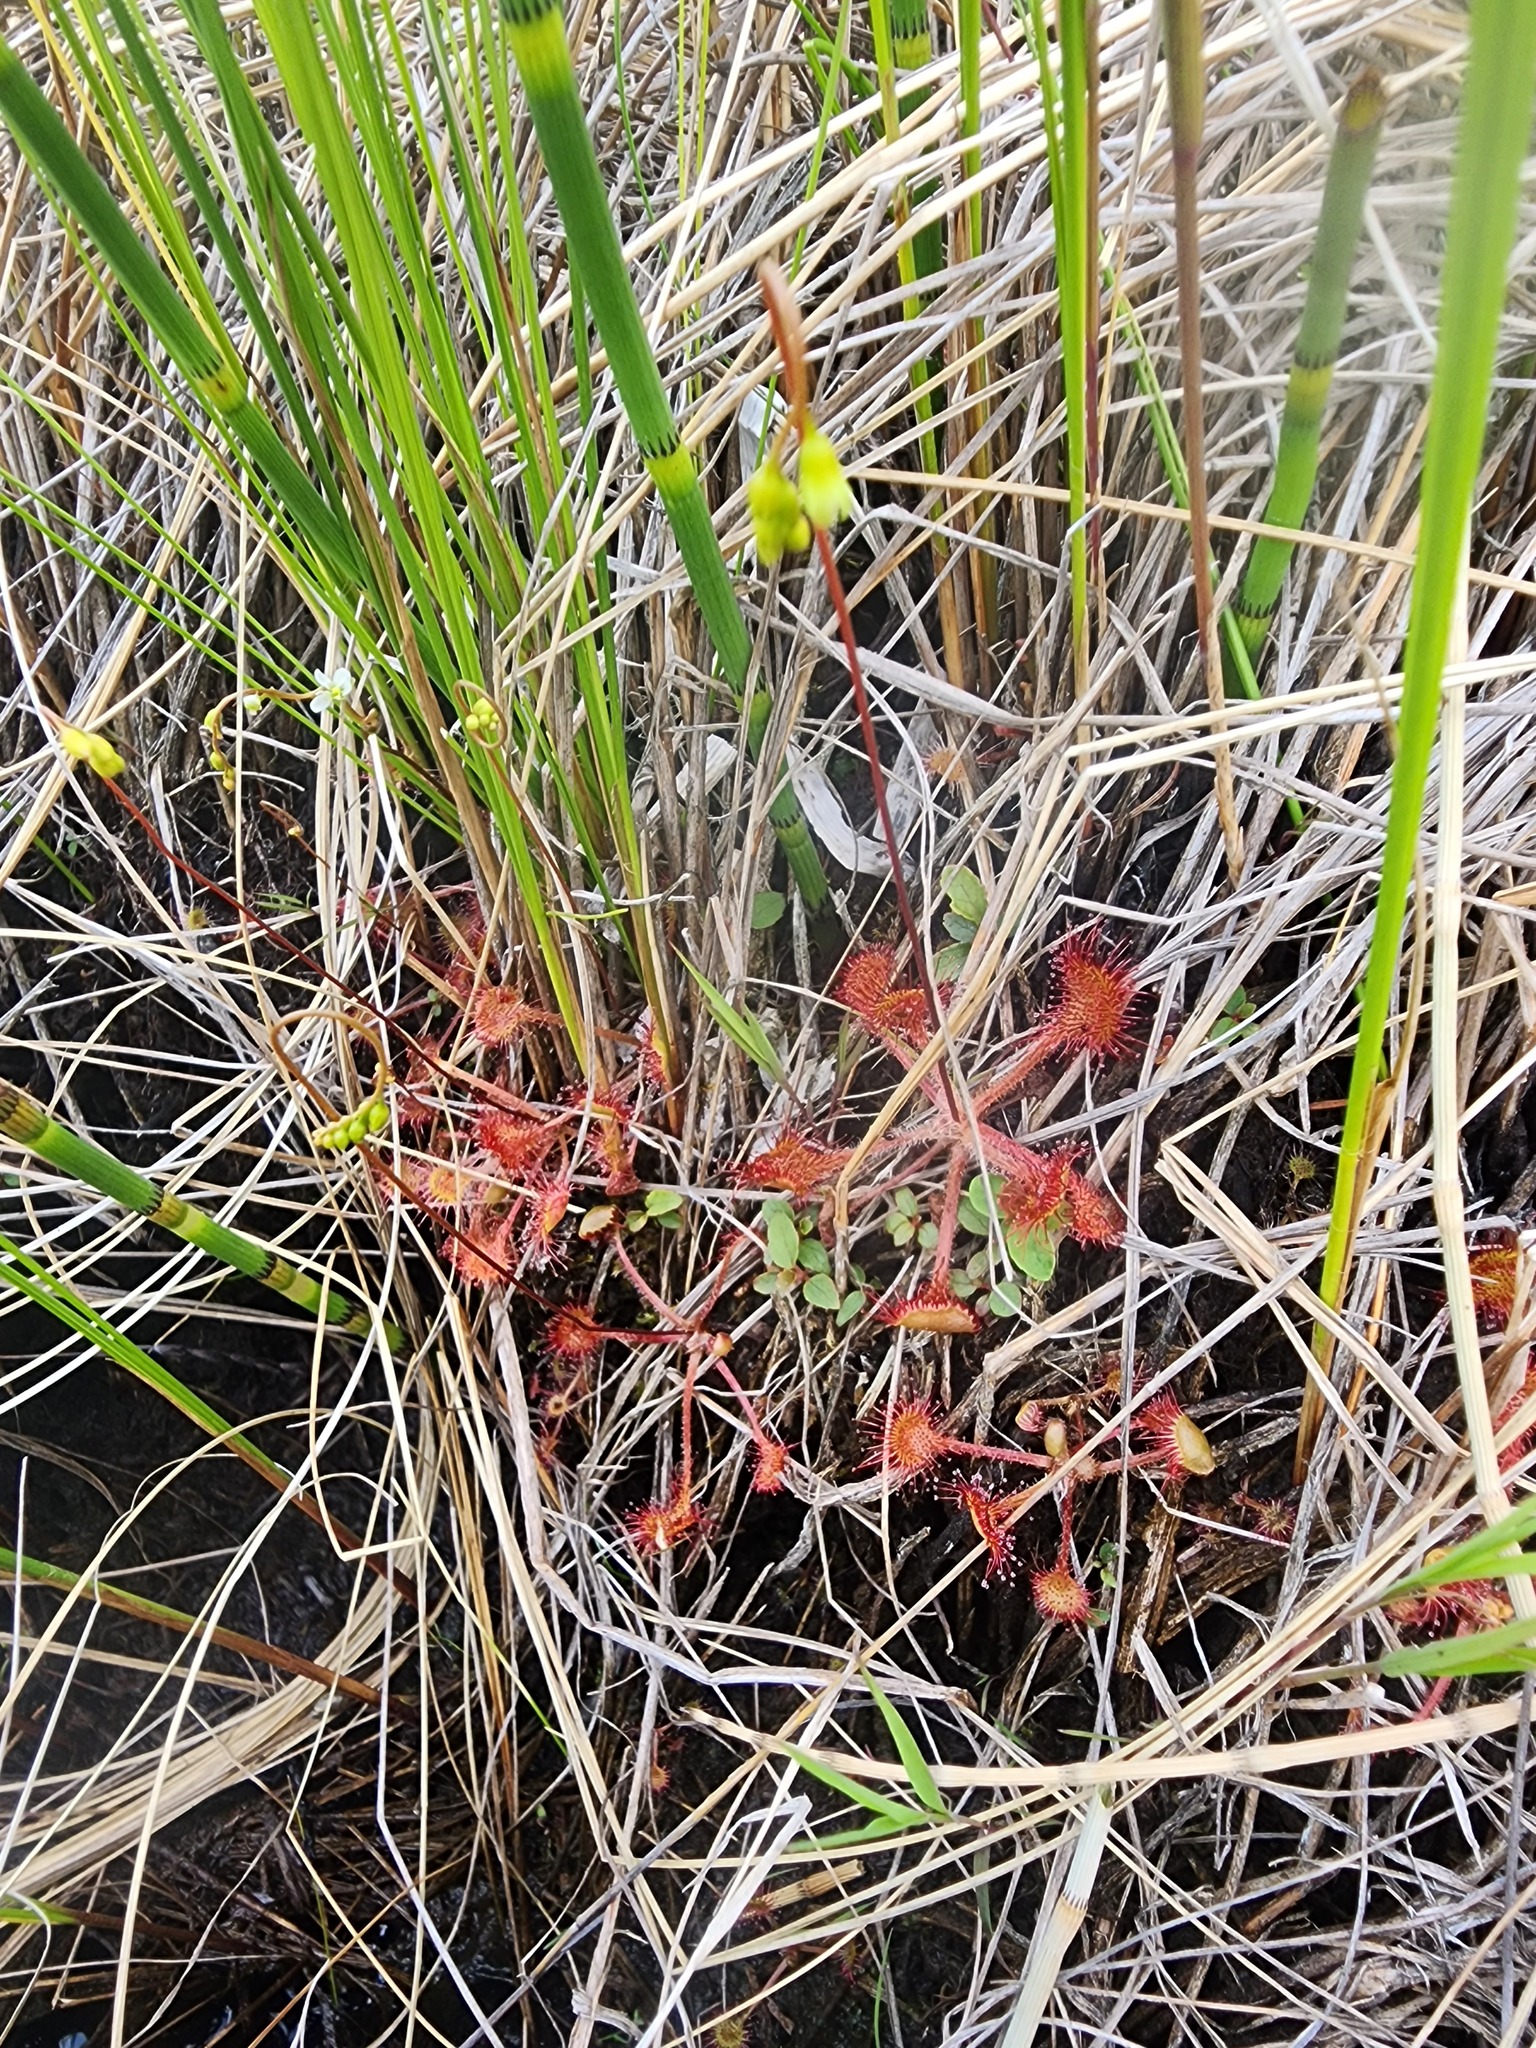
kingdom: Plantae
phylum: Tracheophyta
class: Magnoliopsida
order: Caryophyllales
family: Droseraceae
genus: Drosera
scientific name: Drosera rotundifolia
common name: Round-leaved sundew
